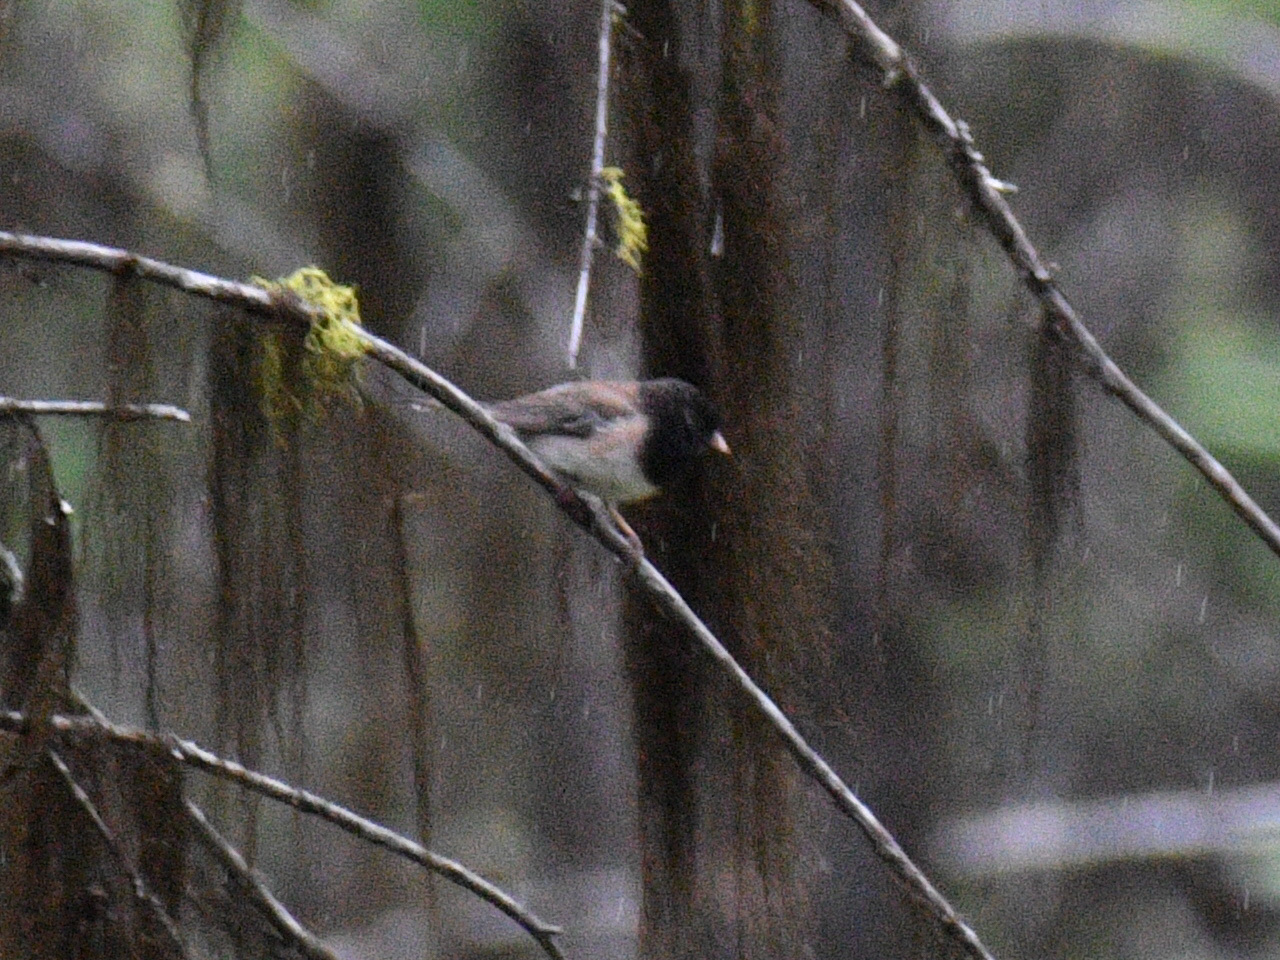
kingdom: Animalia
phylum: Chordata
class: Aves
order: Passeriformes
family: Passerellidae
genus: Junco
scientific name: Junco hyemalis
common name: Dark-eyed junco
